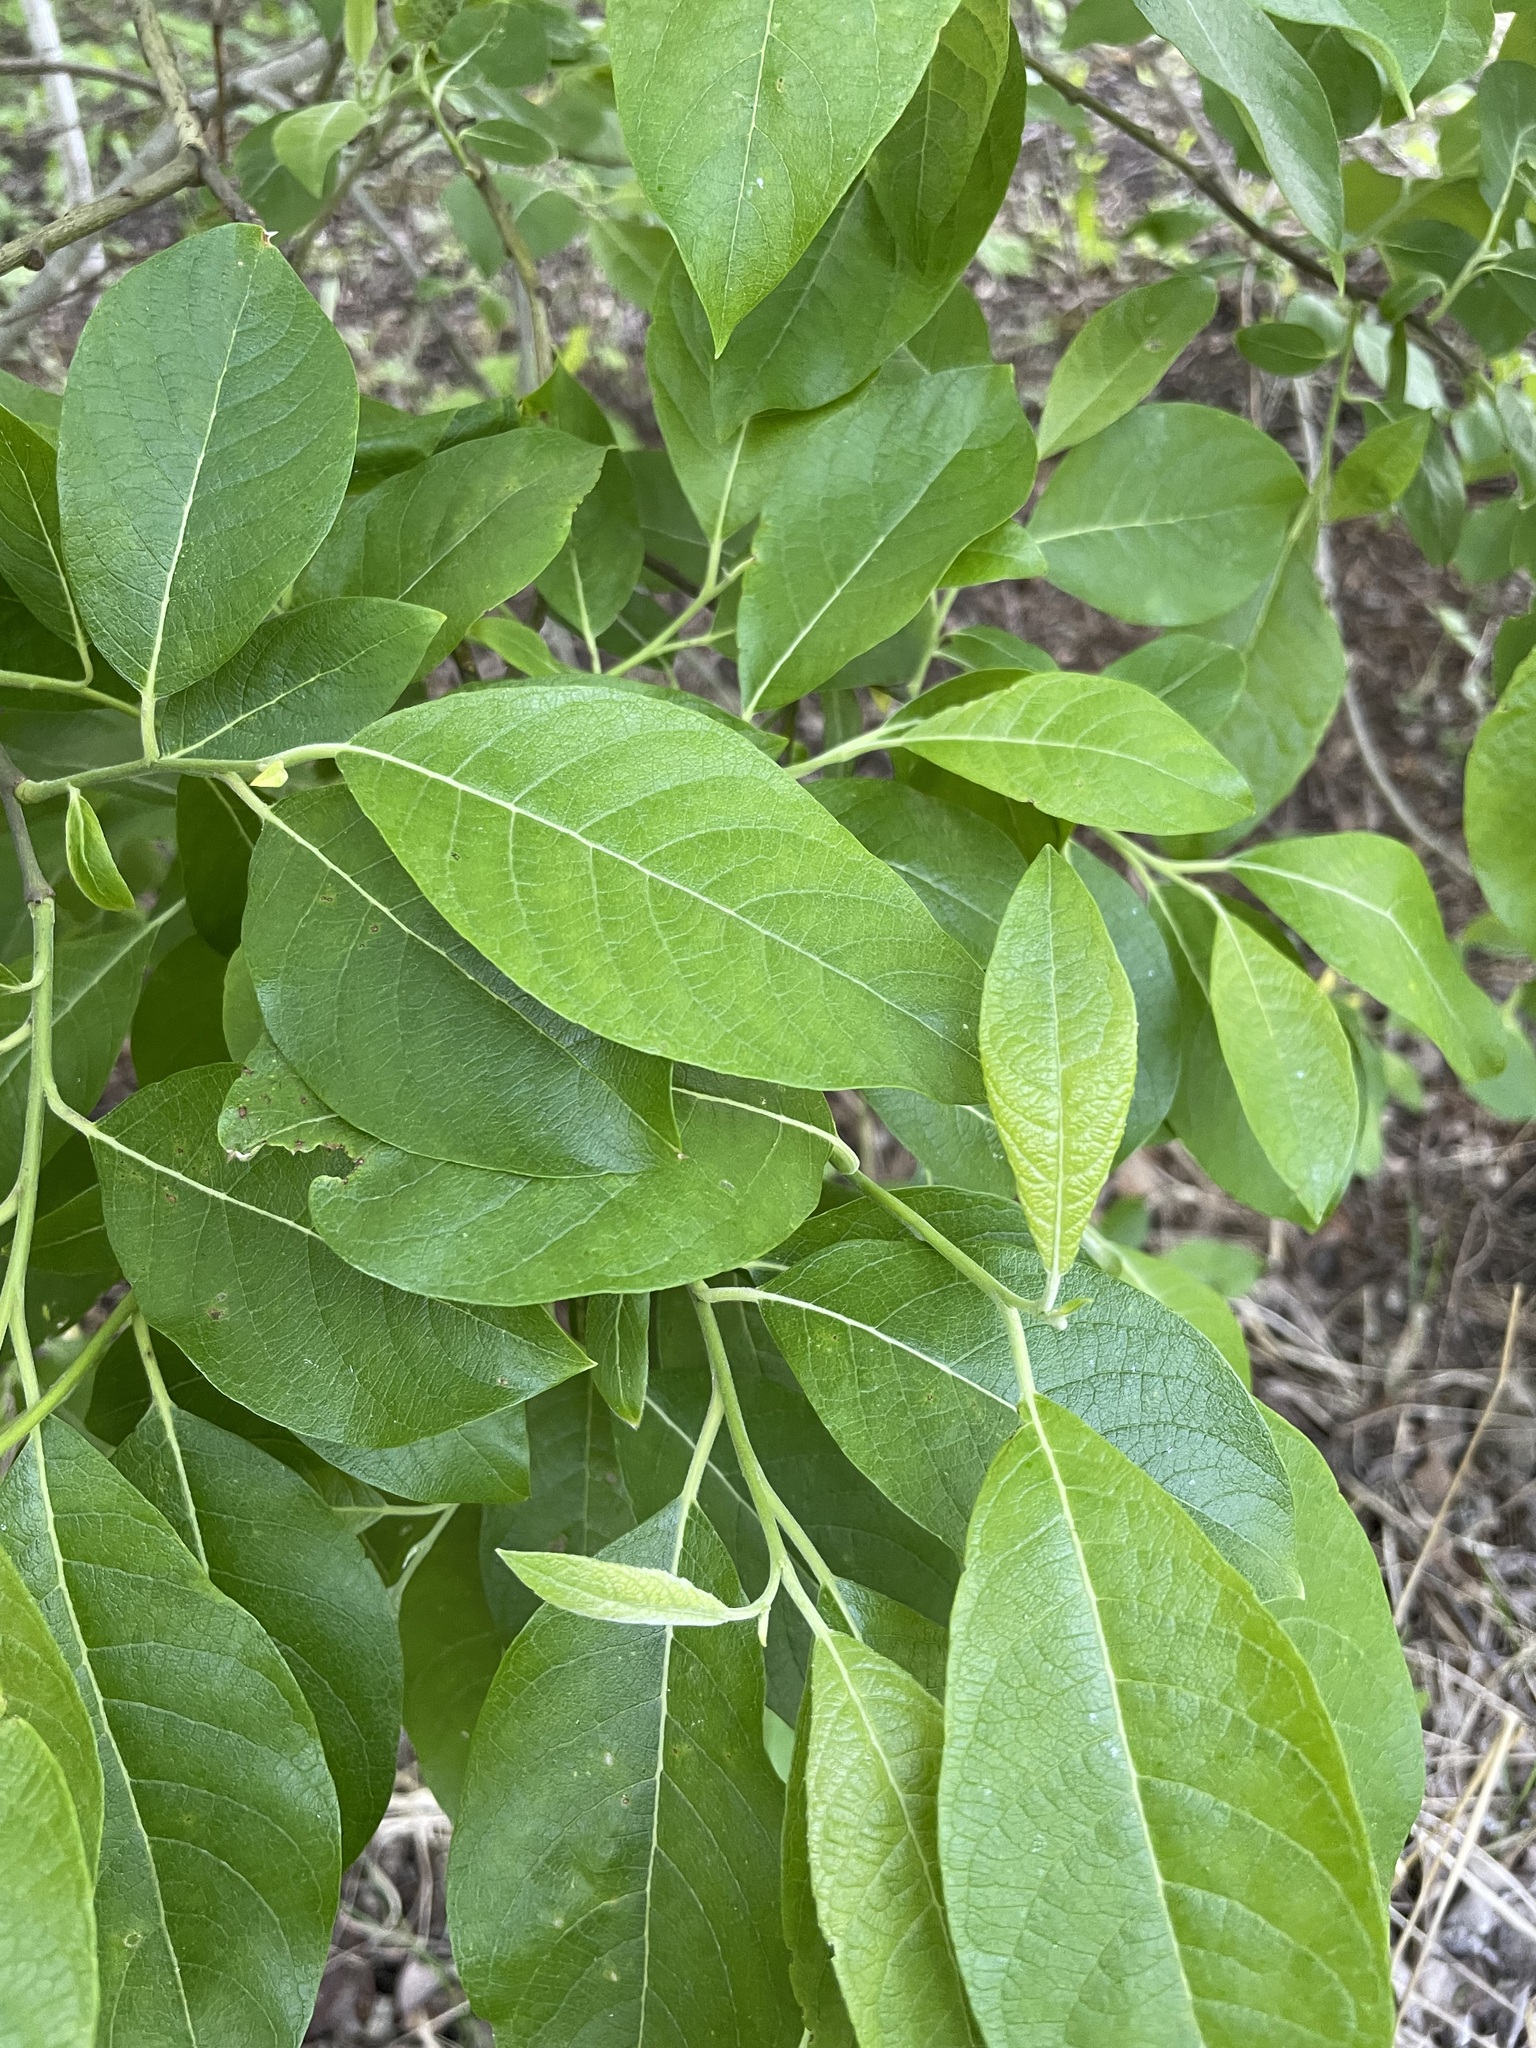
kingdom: Plantae
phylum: Tracheophyta
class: Magnoliopsida
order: Malpighiales
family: Salicaceae
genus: Salix
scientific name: Salix caprea
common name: Goat willow
